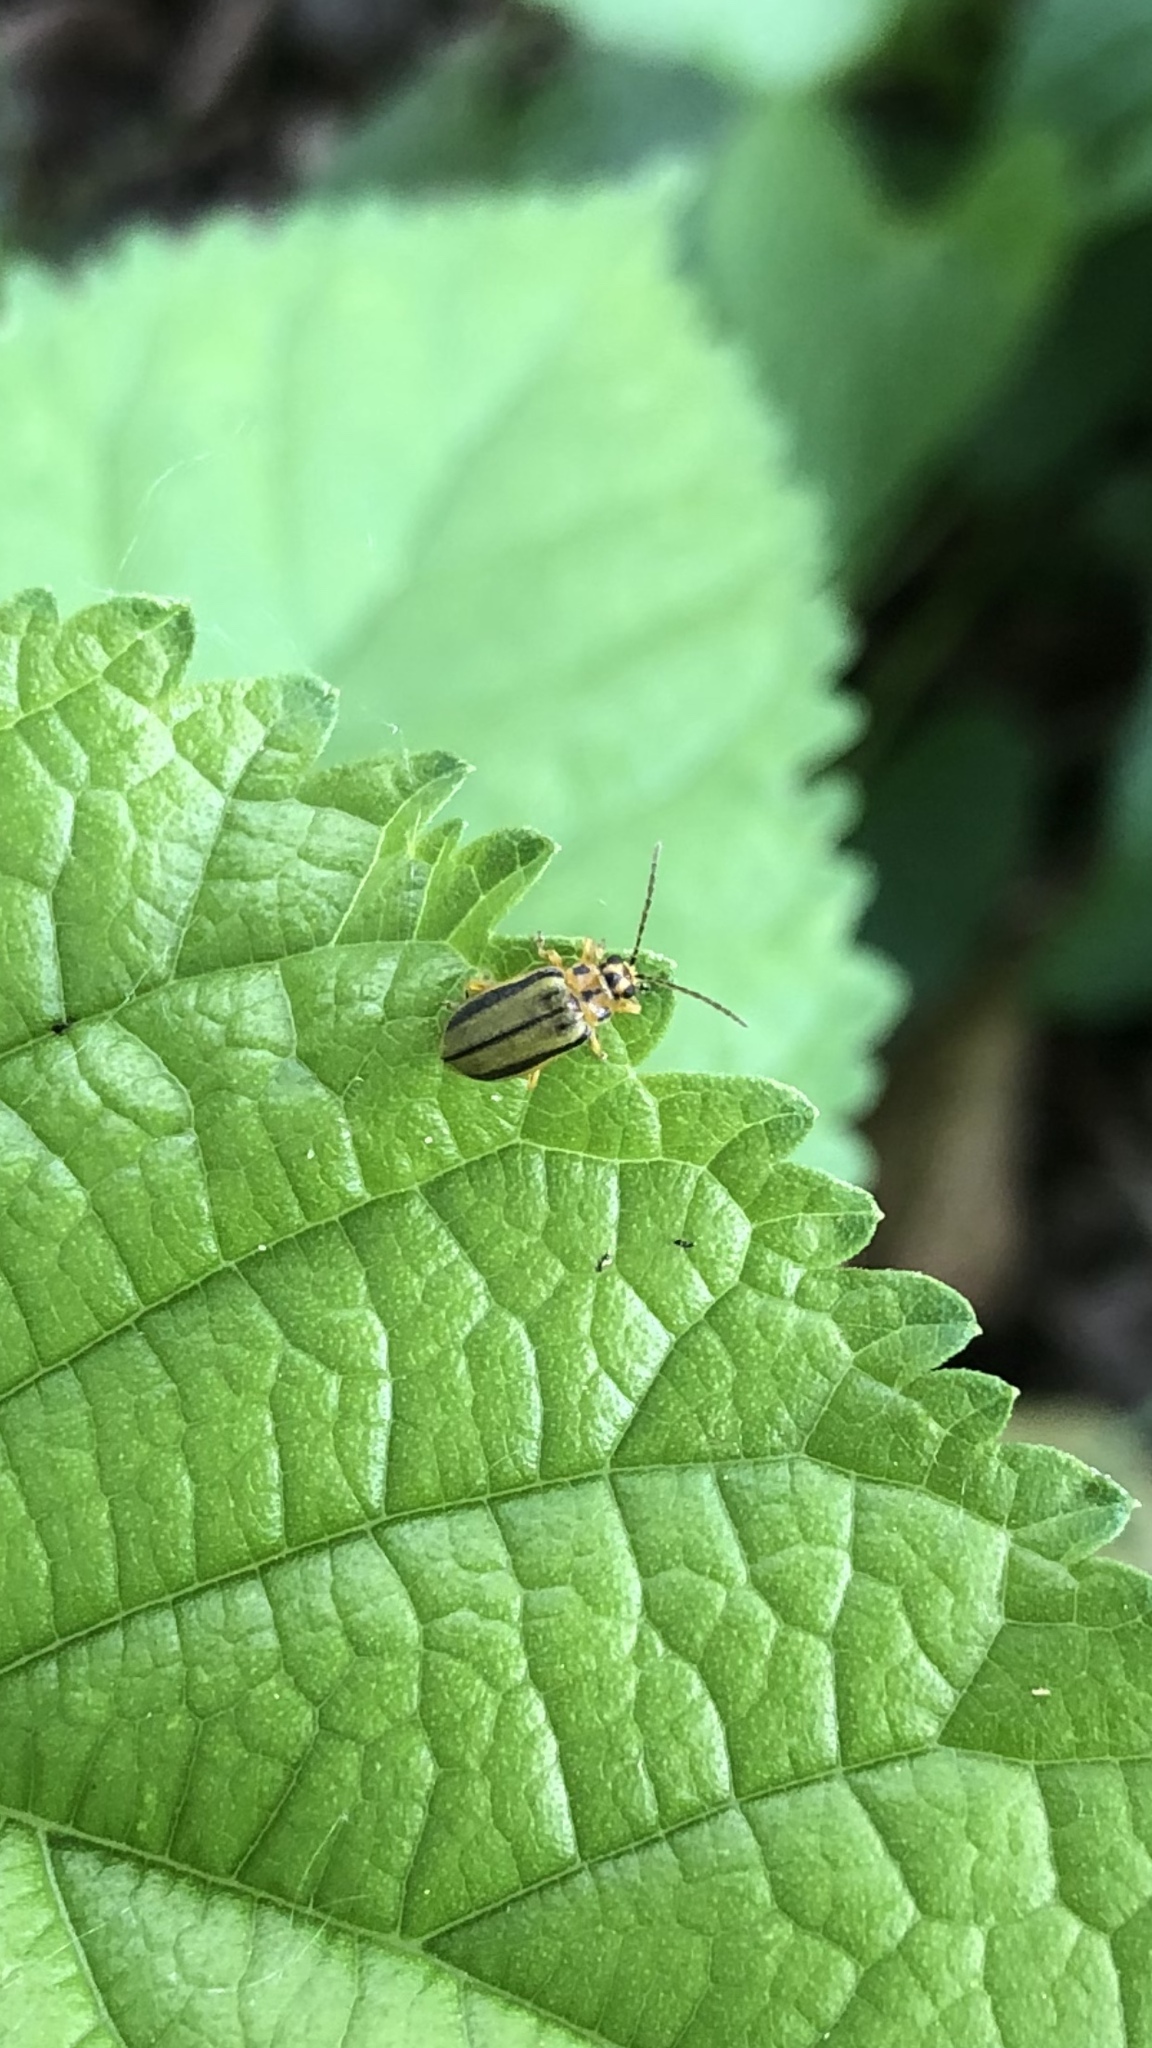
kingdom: Animalia
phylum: Arthropoda
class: Insecta
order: Coleoptera
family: Chrysomelidae
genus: Xanthogaleruca
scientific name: Xanthogaleruca luteola
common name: Elm leaf beetle
